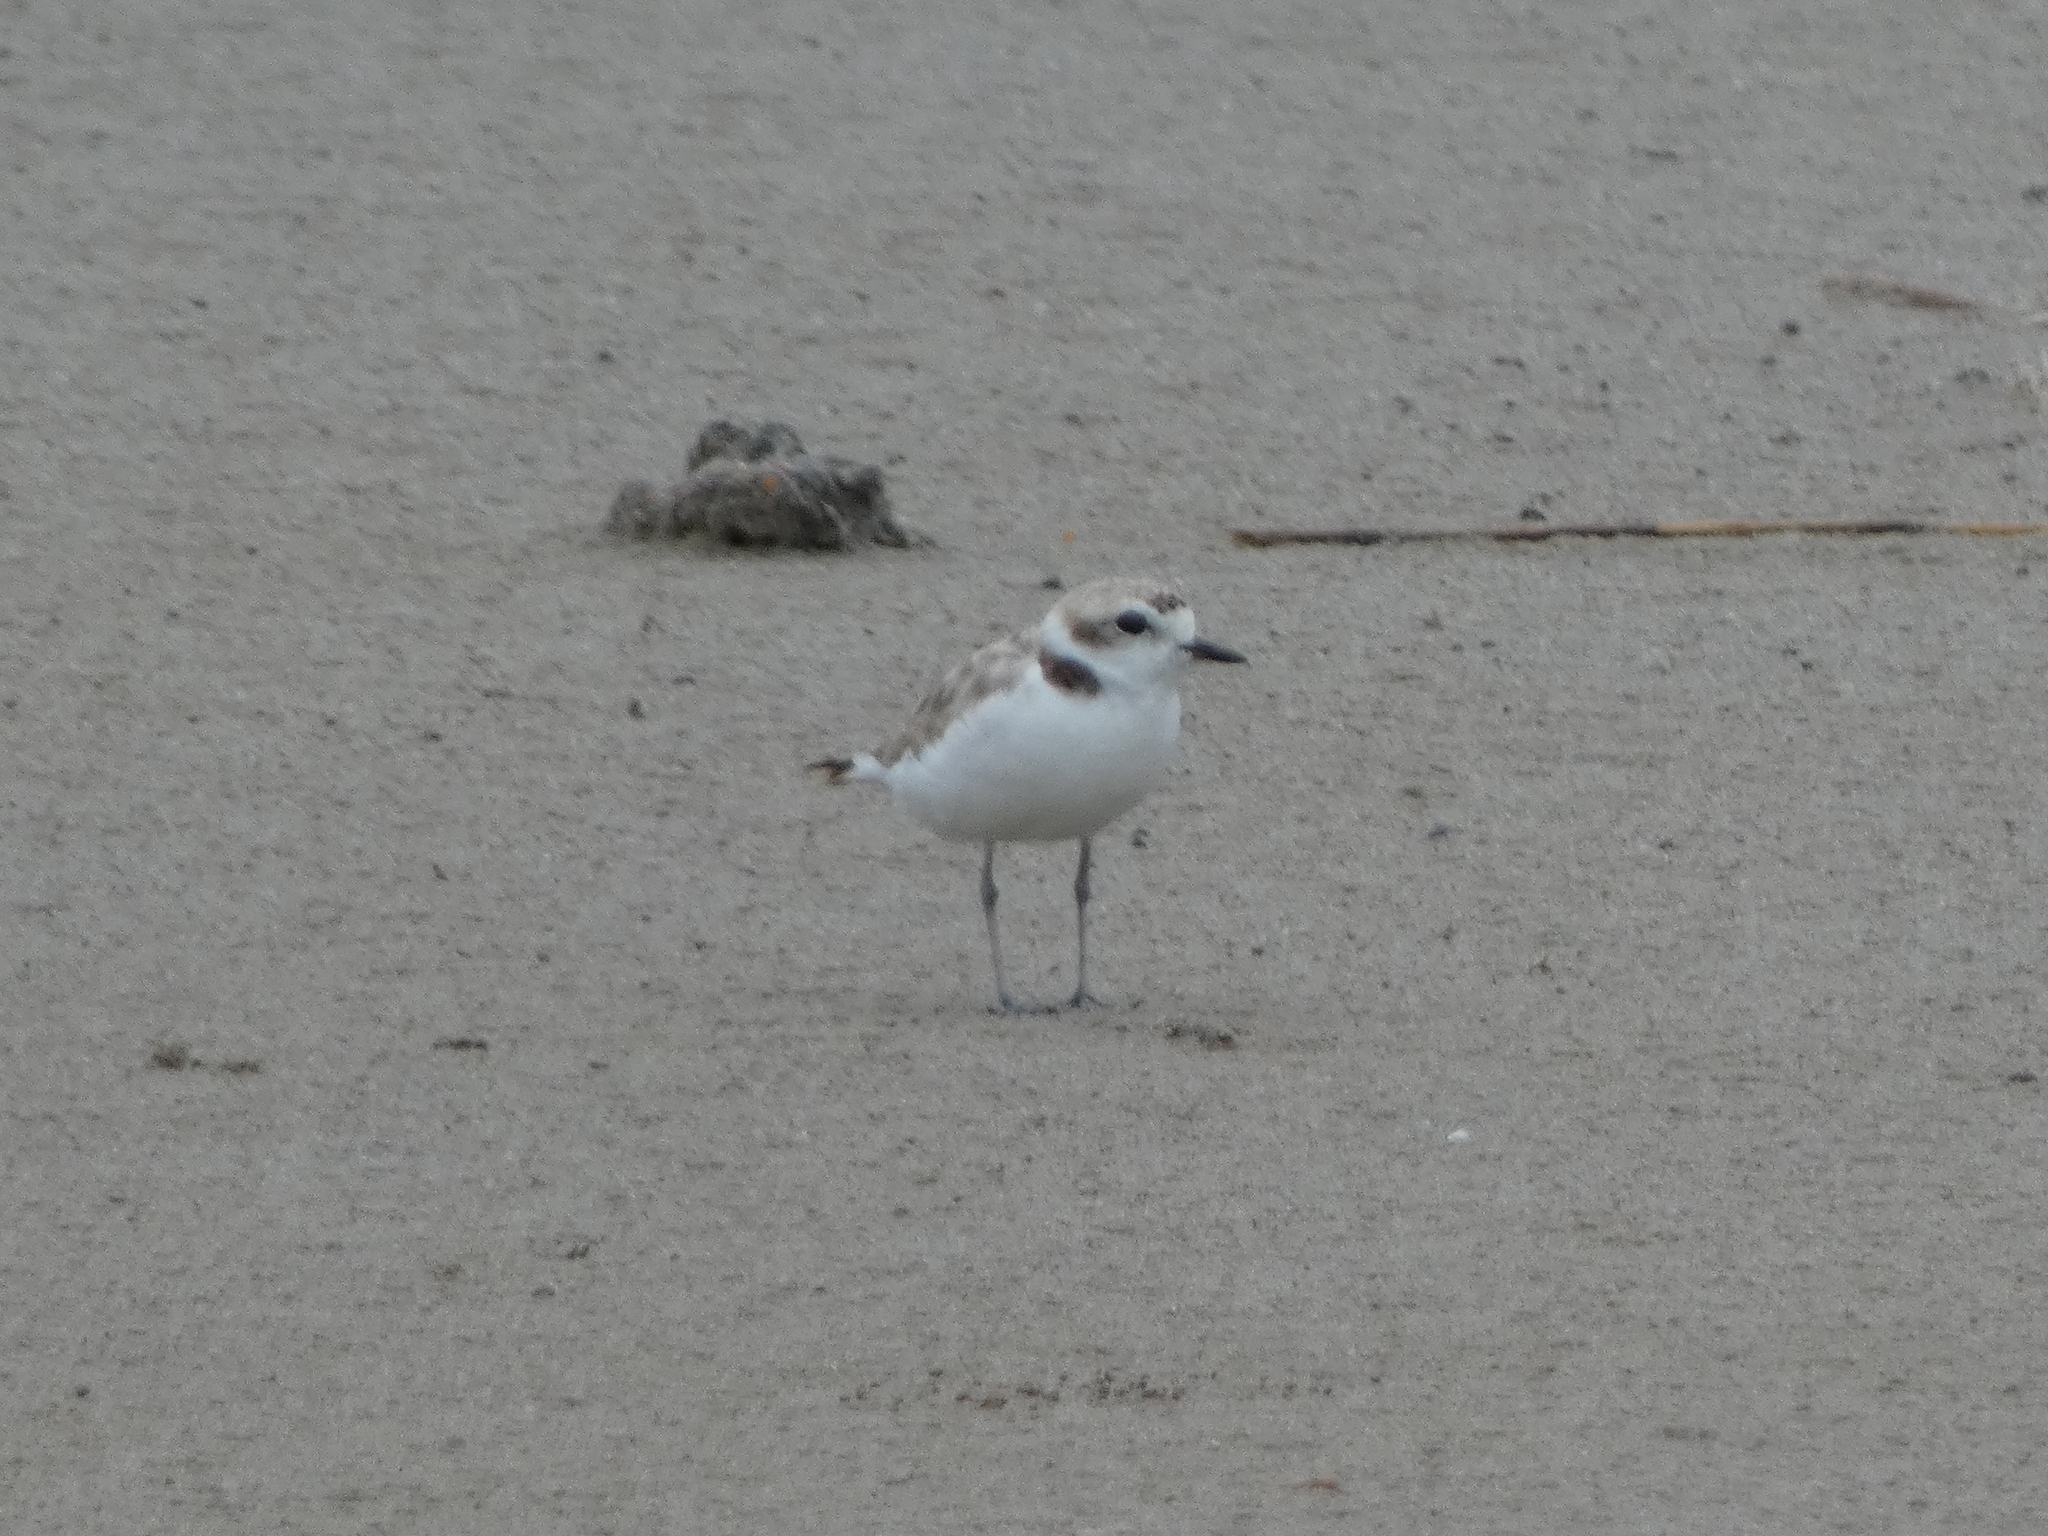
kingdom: Animalia
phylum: Chordata
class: Aves
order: Charadriiformes
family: Charadriidae
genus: Anarhynchus
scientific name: Anarhynchus
